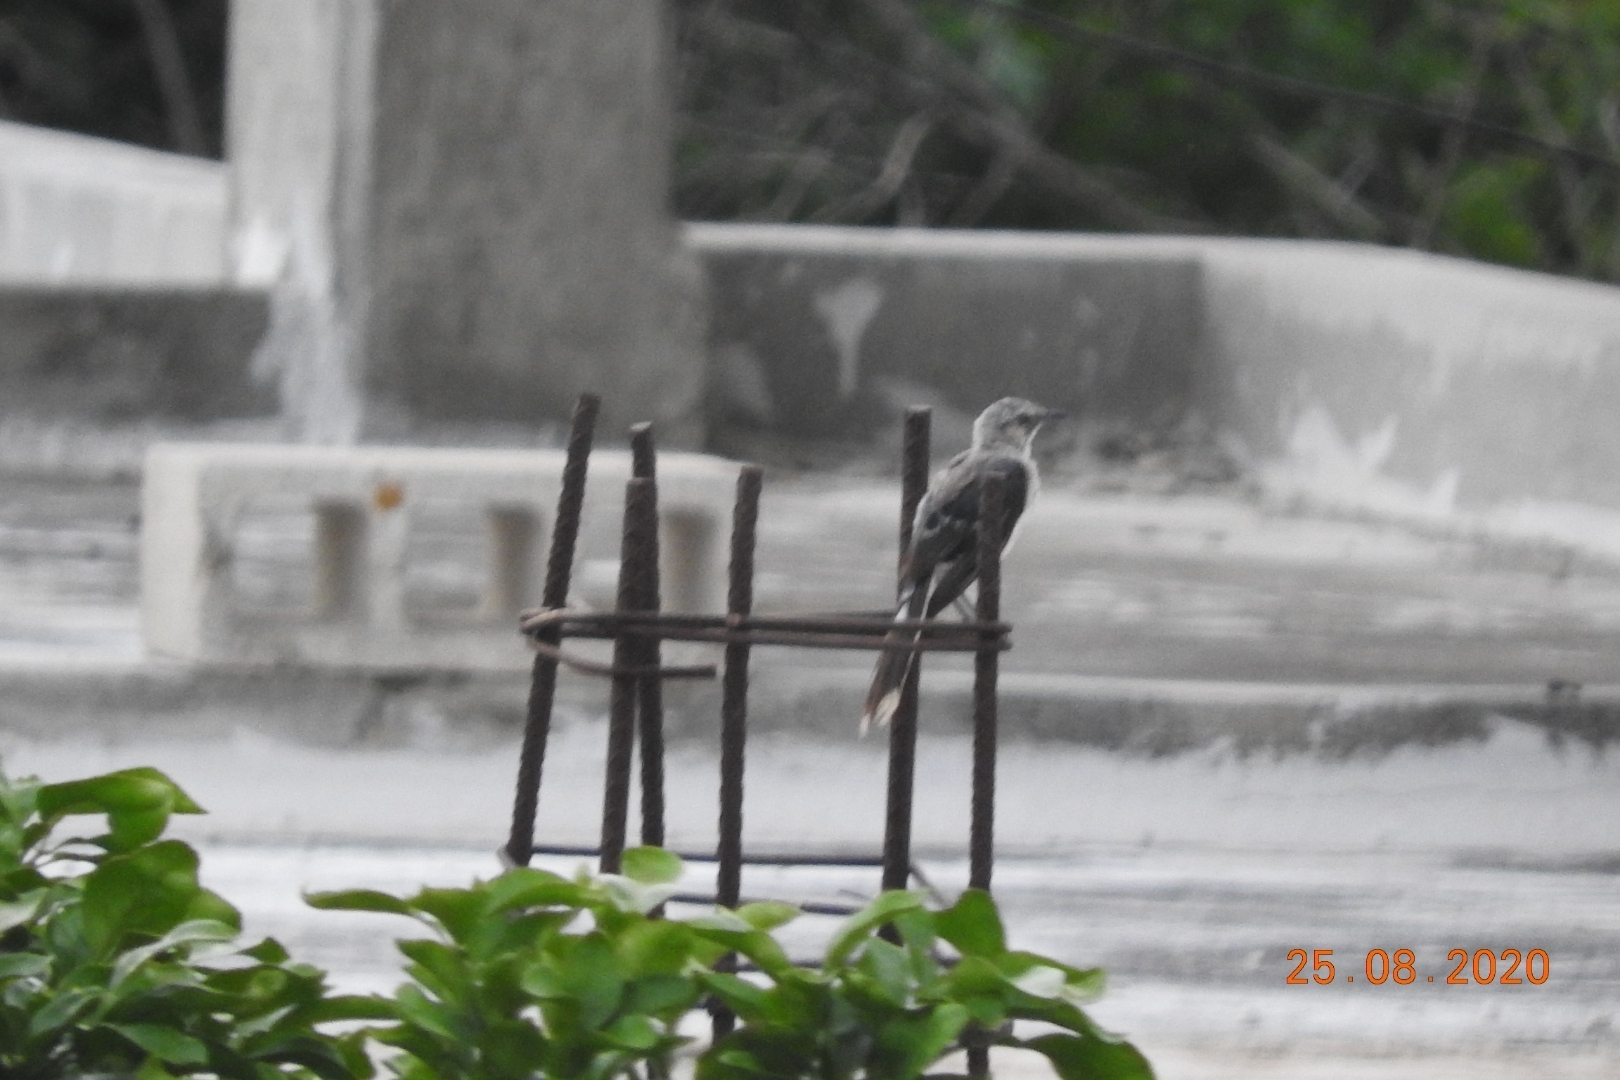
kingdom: Animalia
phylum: Chordata
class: Aves
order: Passeriformes
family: Mimidae
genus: Mimus
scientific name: Mimus gilvus
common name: Tropical mockingbird
